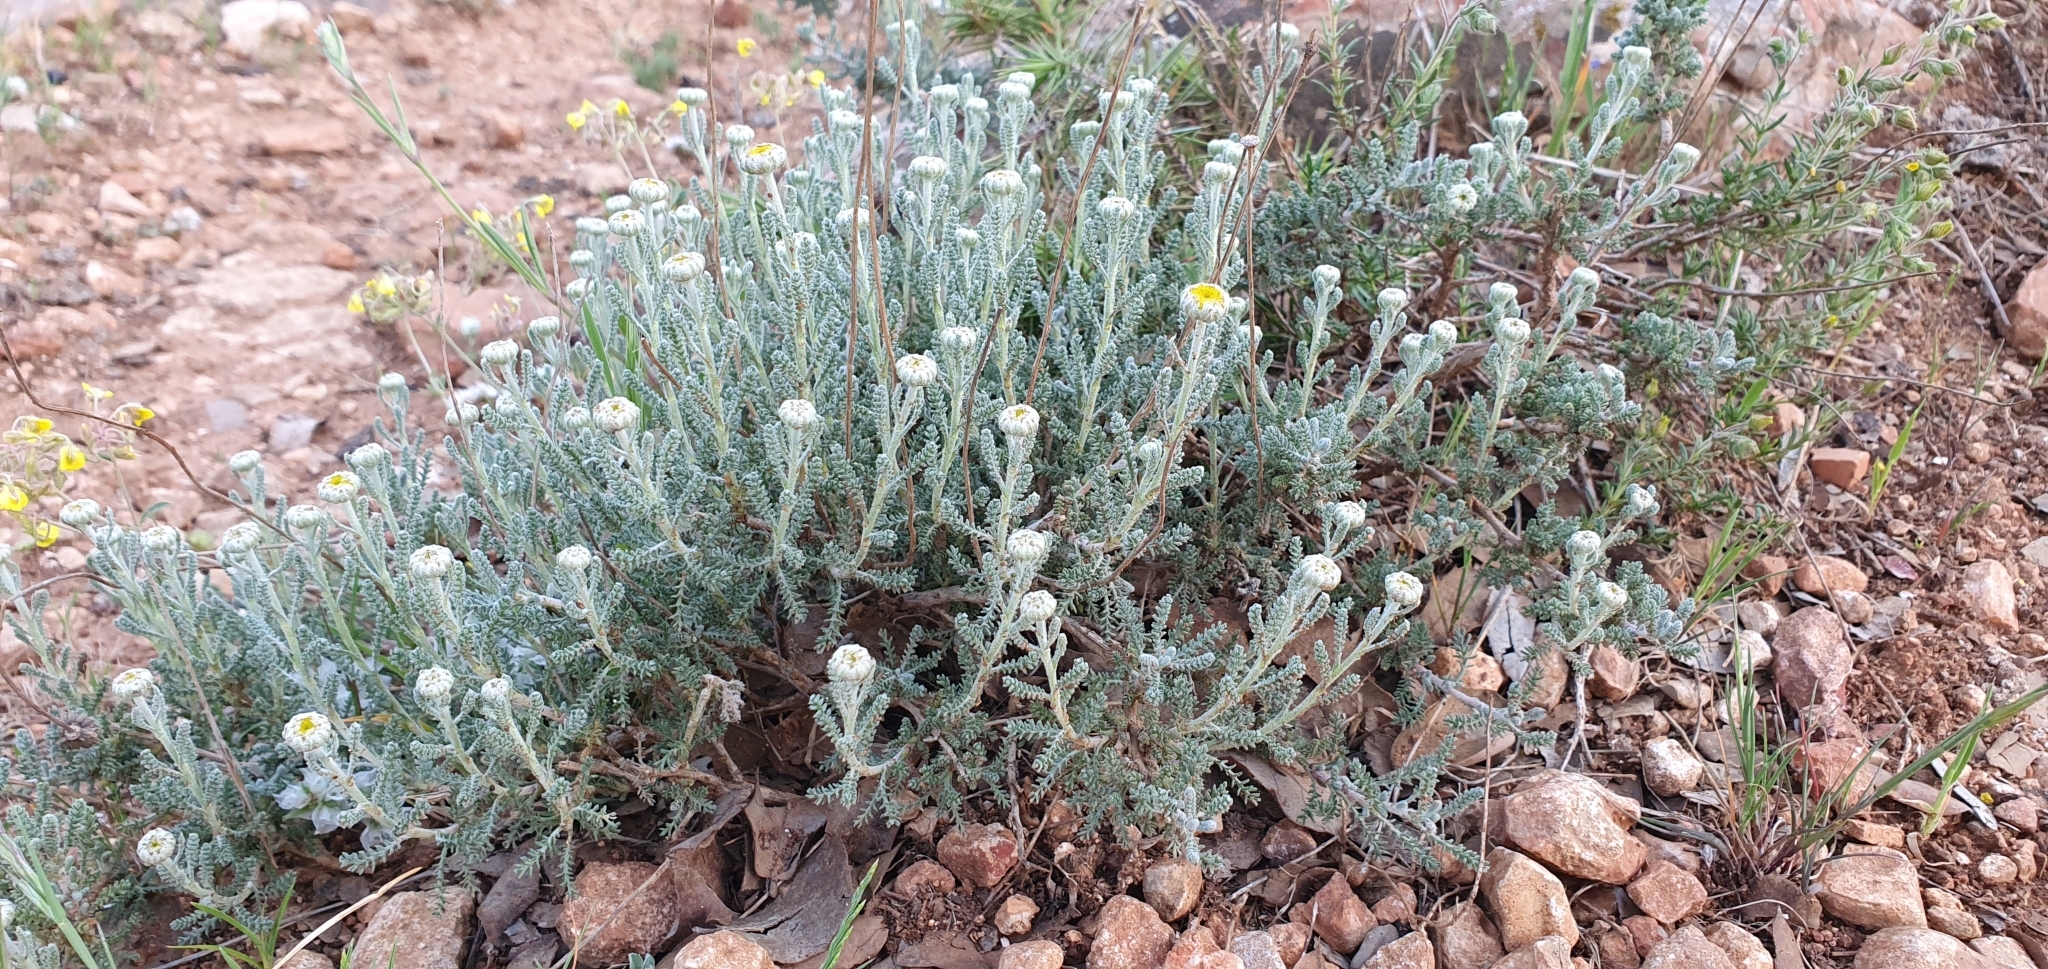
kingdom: Plantae
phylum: Tracheophyta
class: Magnoliopsida
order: Asterales
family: Asteraceae
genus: Santolina
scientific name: Santolina africana
